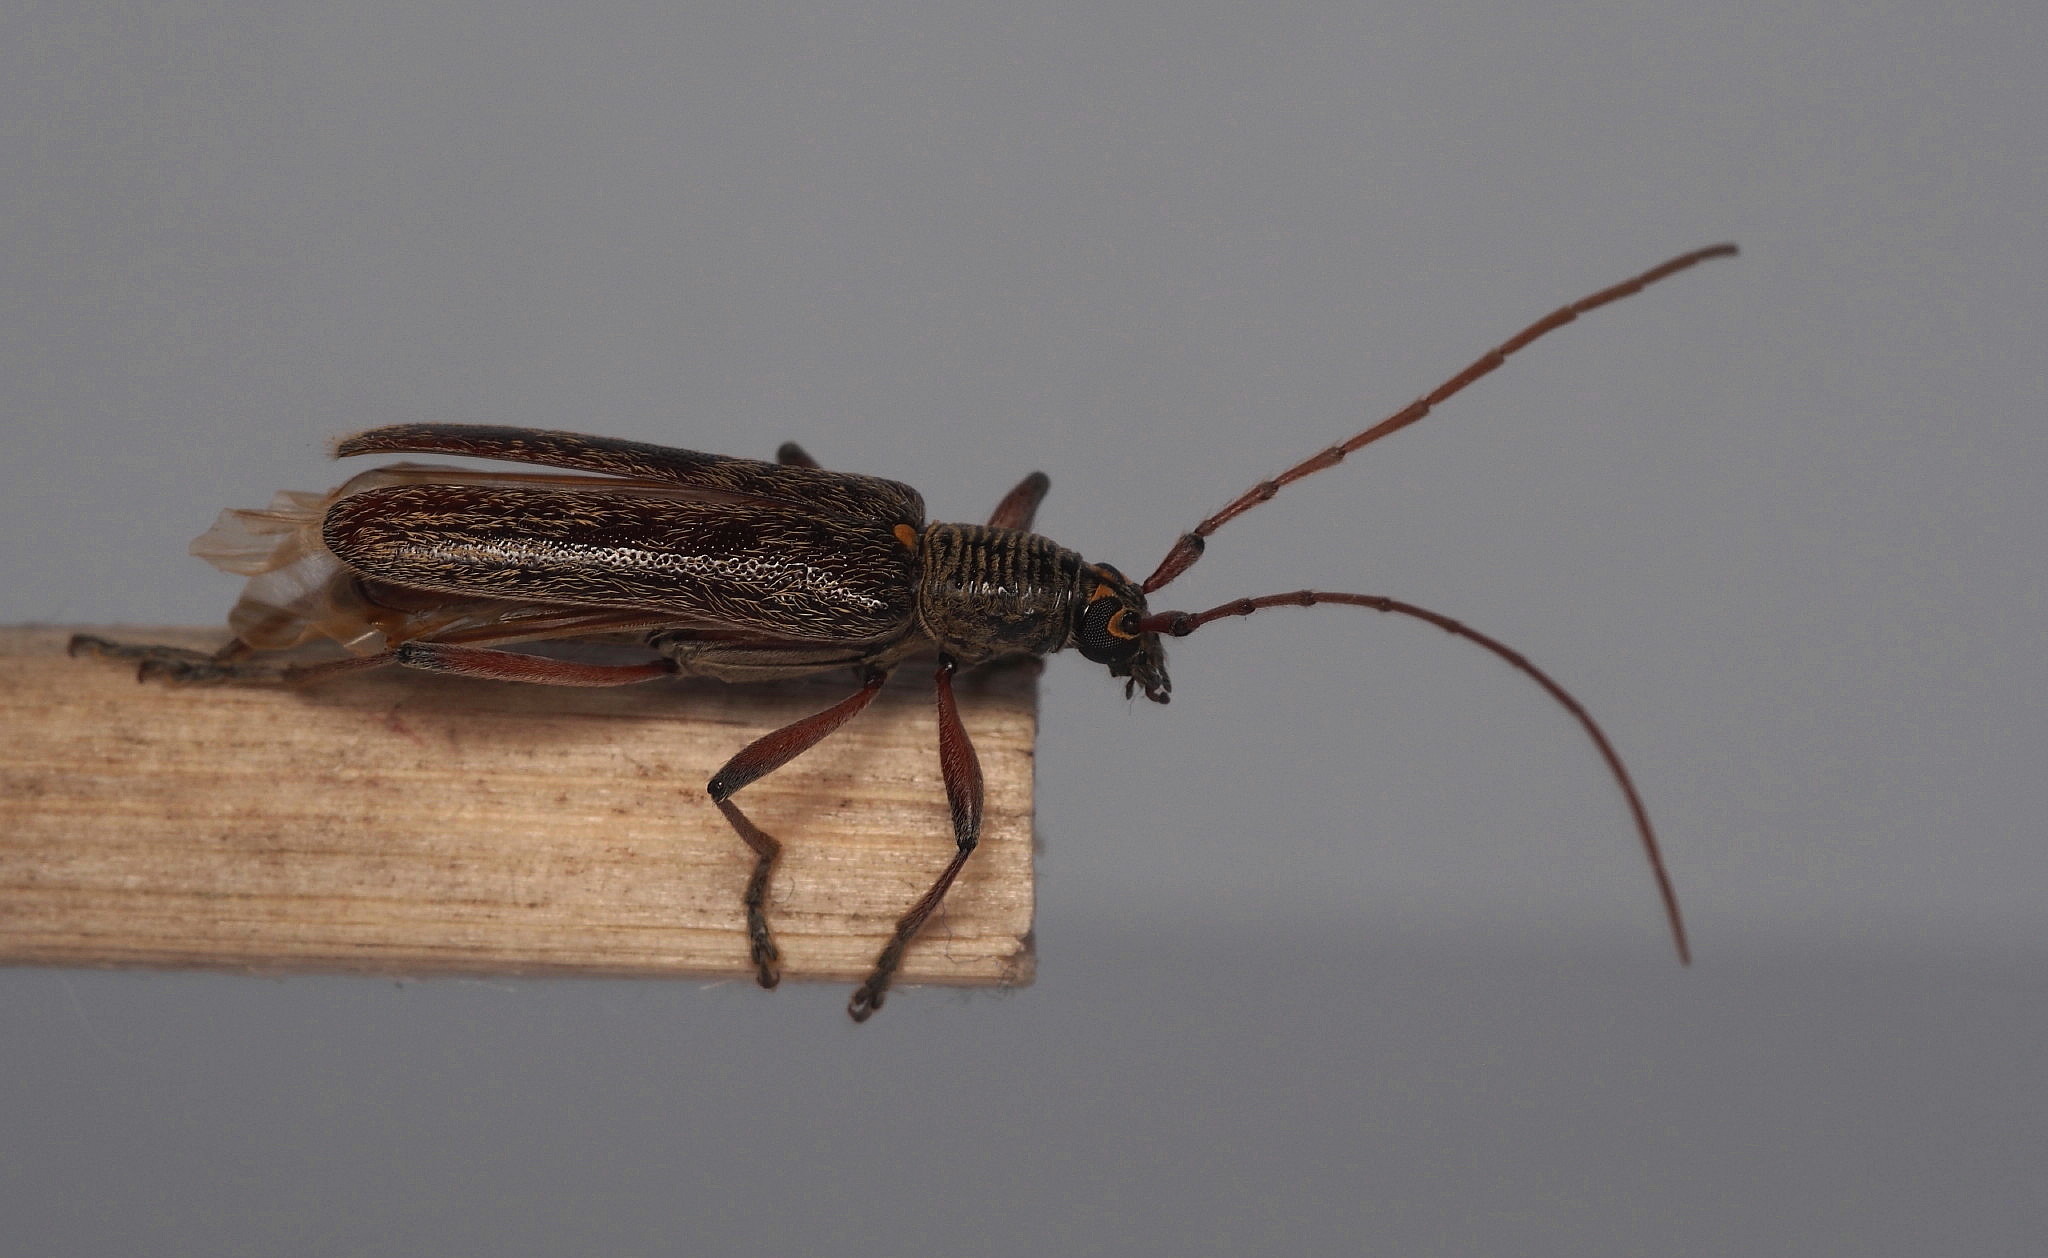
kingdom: Animalia
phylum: Arthropoda
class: Insecta
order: Coleoptera
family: Cerambycidae
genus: Oemona
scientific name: Oemona hirta
